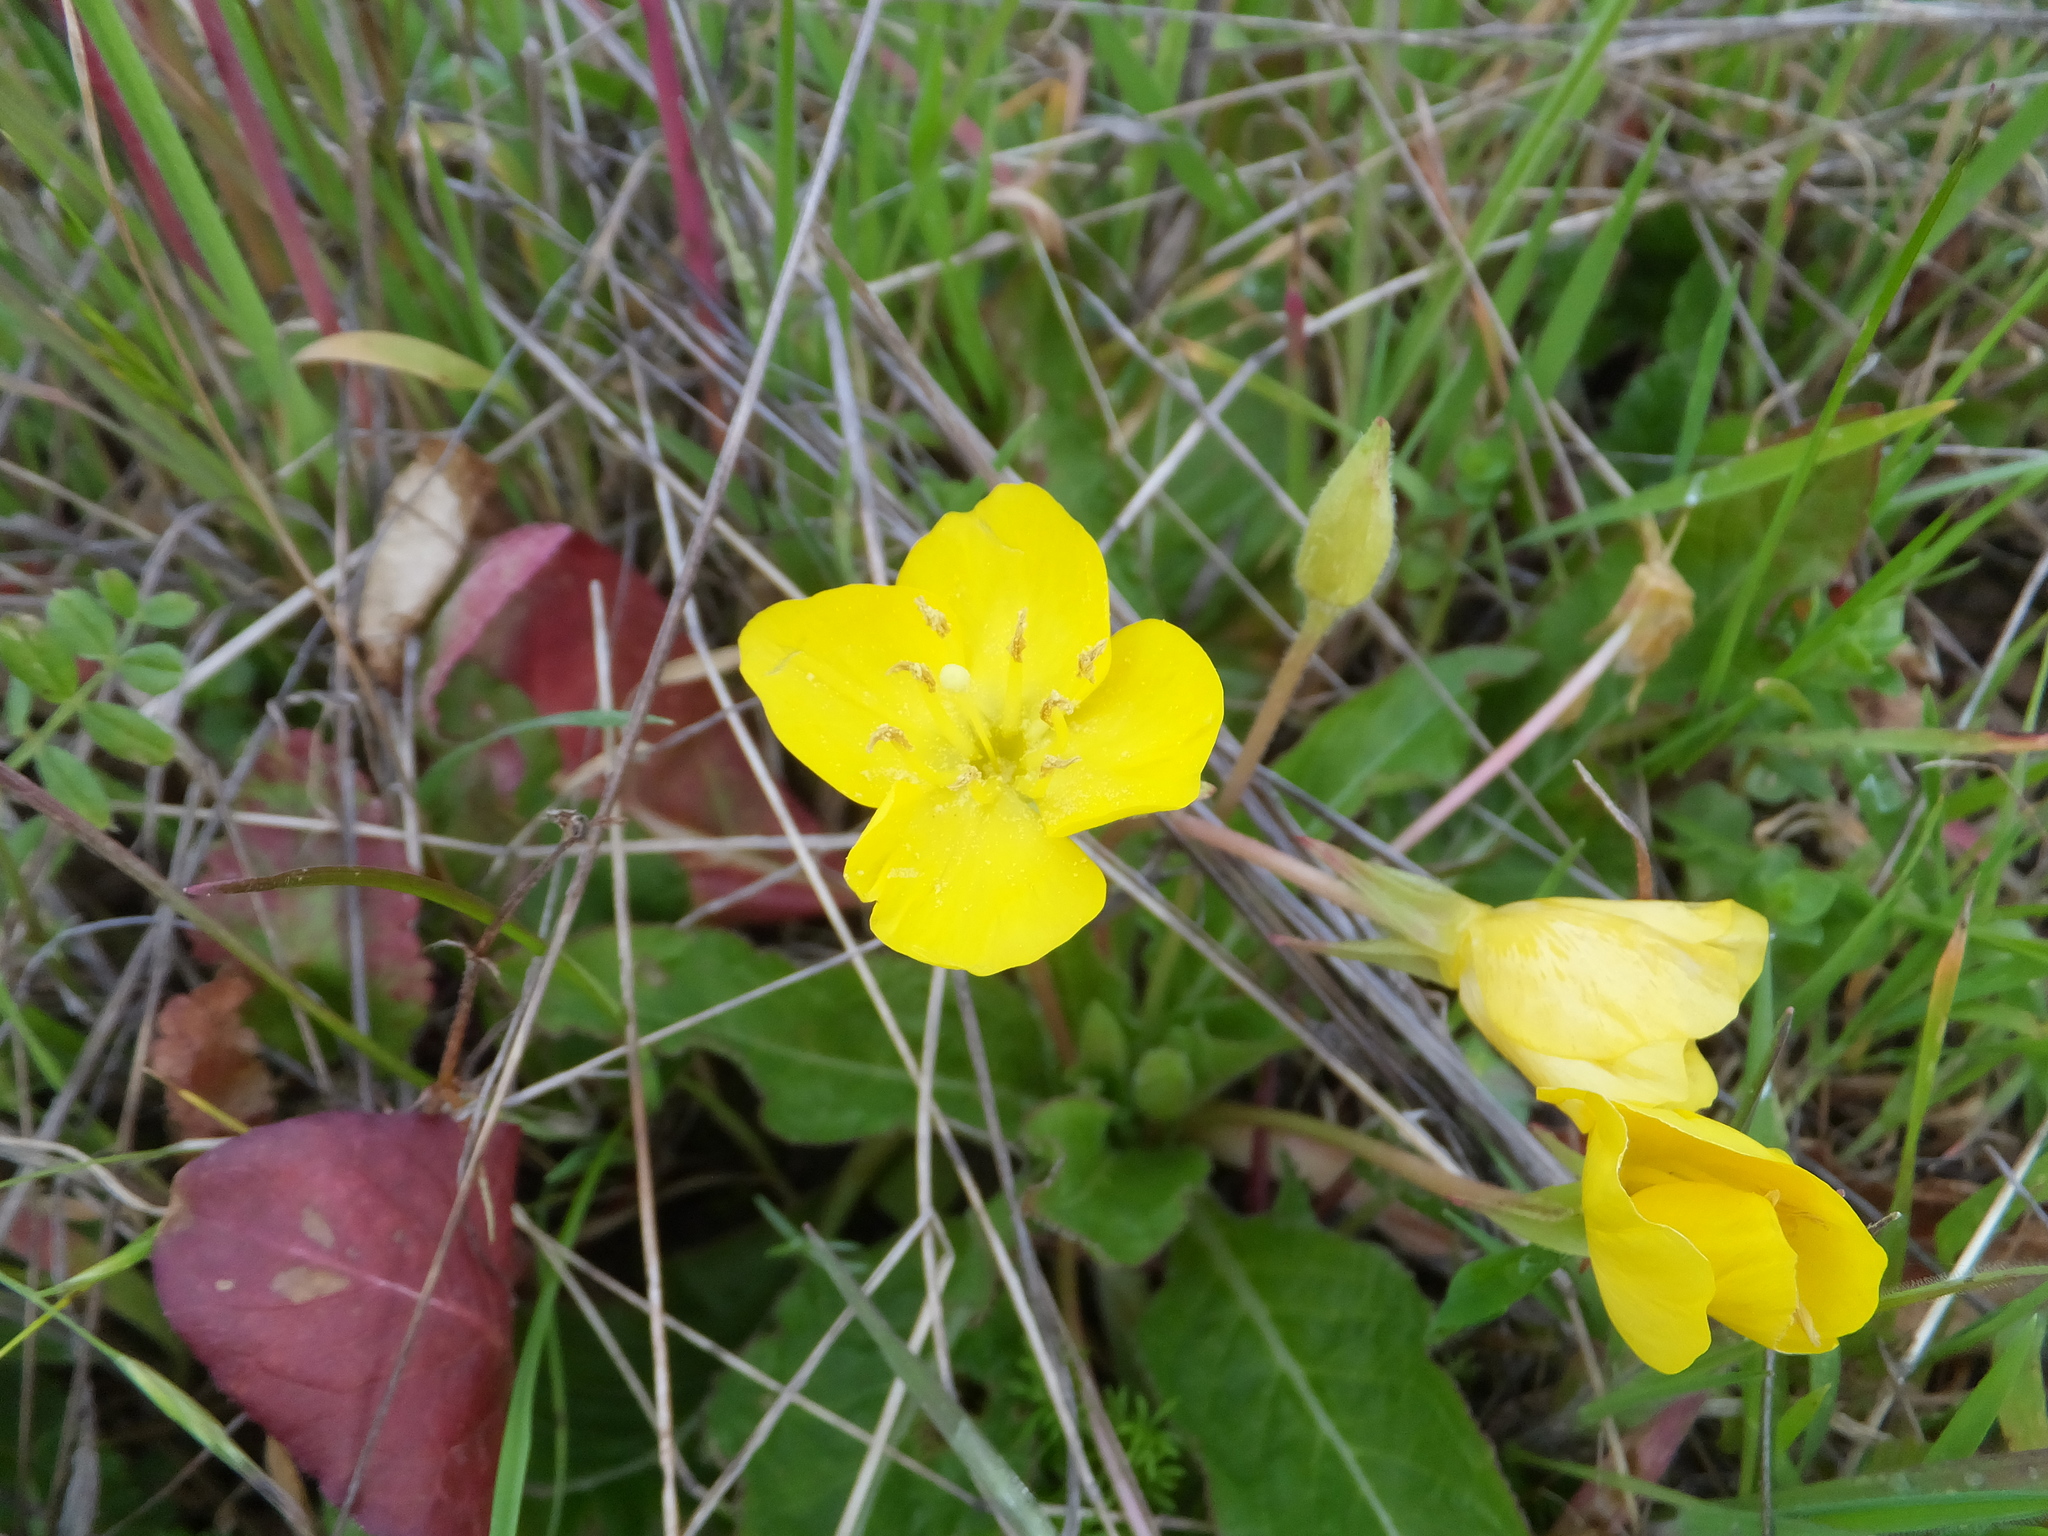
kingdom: Plantae
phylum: Tracheophyta
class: Magnoliopsida
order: Myrtales
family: Onagraceae
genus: Taraxia
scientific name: Taraxia ovata
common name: Goldeneggs
